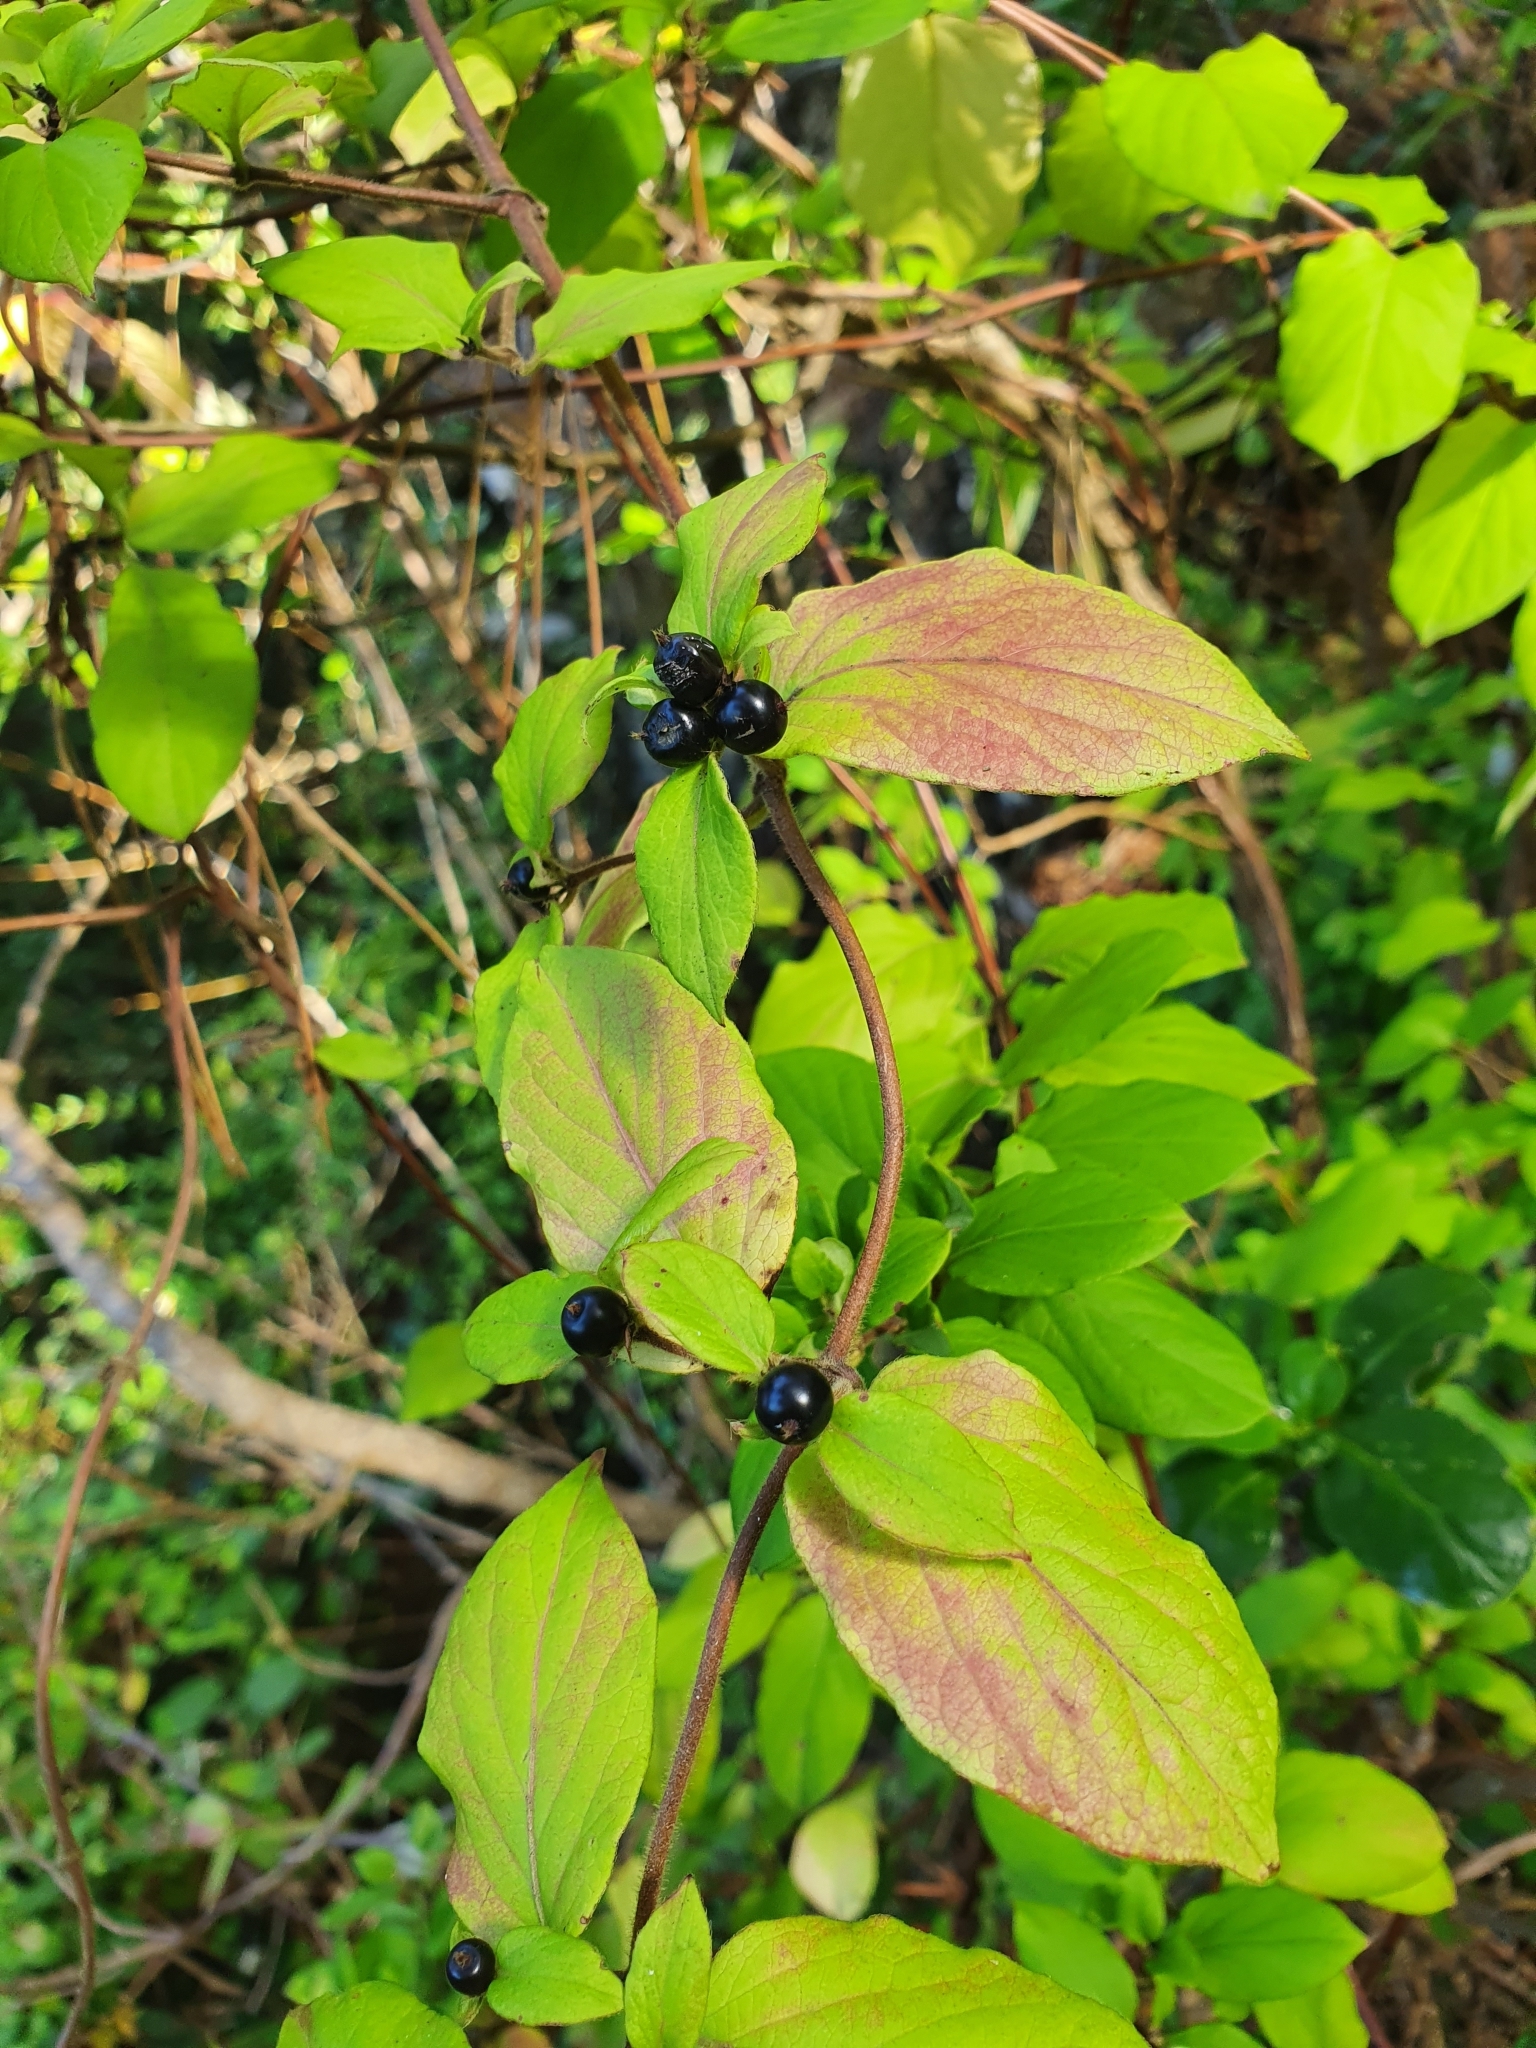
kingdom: Plantae
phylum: Tracheophyta
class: Magnoliopsida
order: Dipsacales
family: Caprifoliaceae
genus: Lonicera
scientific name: Lonicera japonica
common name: Japanese honeysuckle
